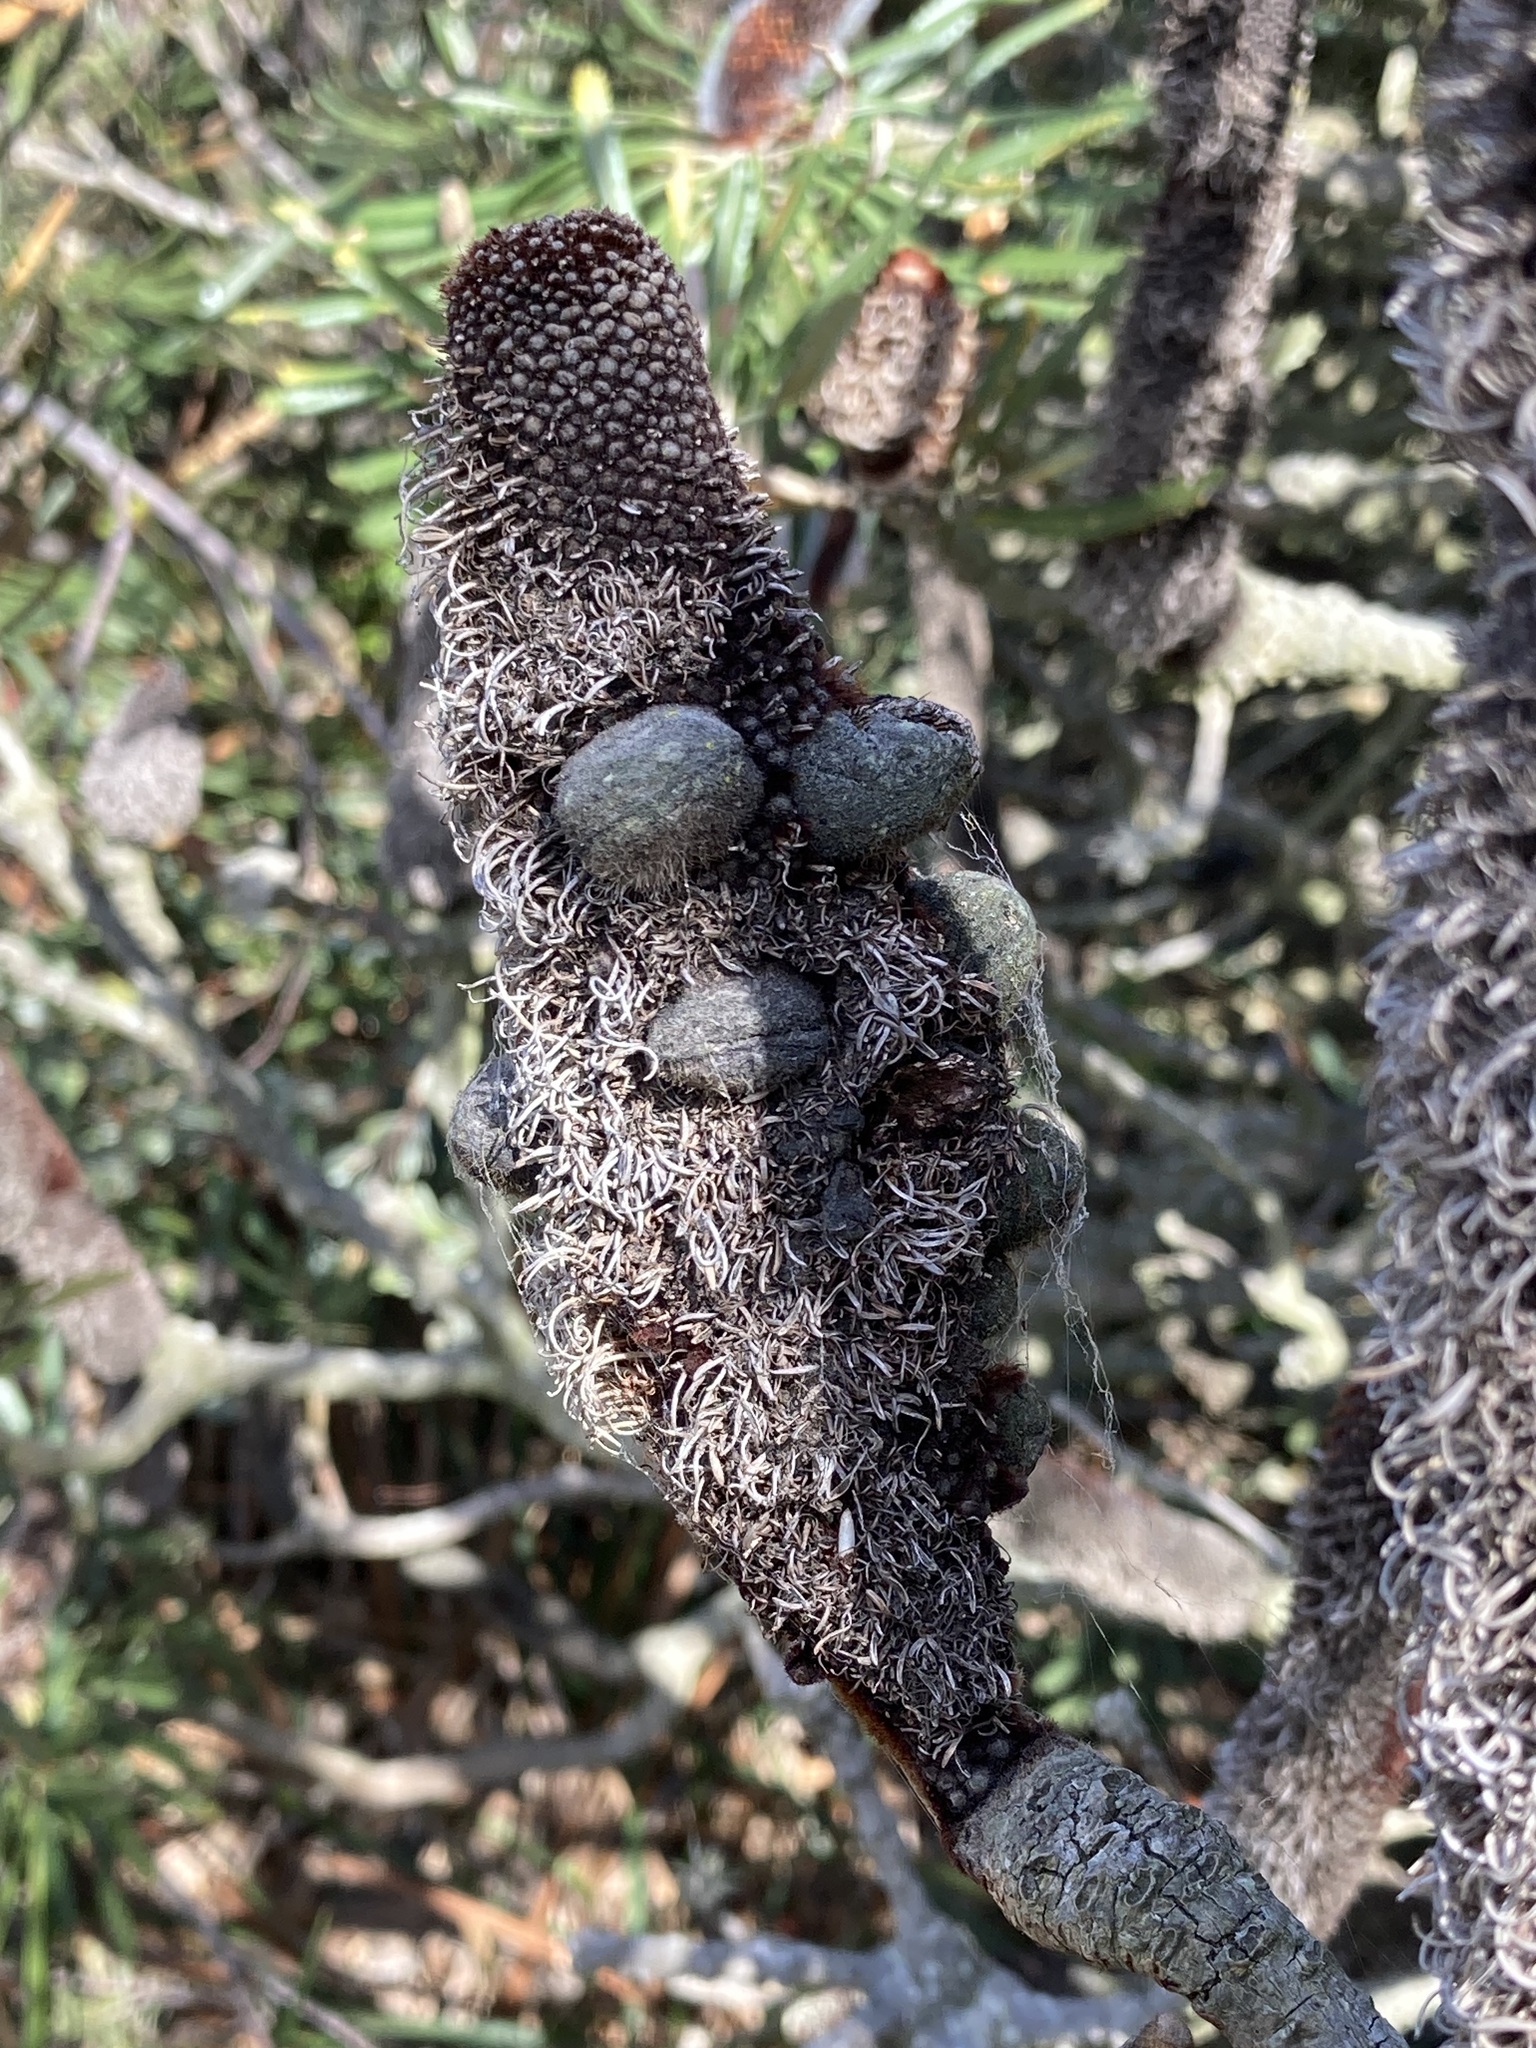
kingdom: Plantae
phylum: Tracheophyta
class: Magnoliopsida
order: Proteales
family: Proteaceae
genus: Banksia
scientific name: Banksia attenuata
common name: Coast banksia
